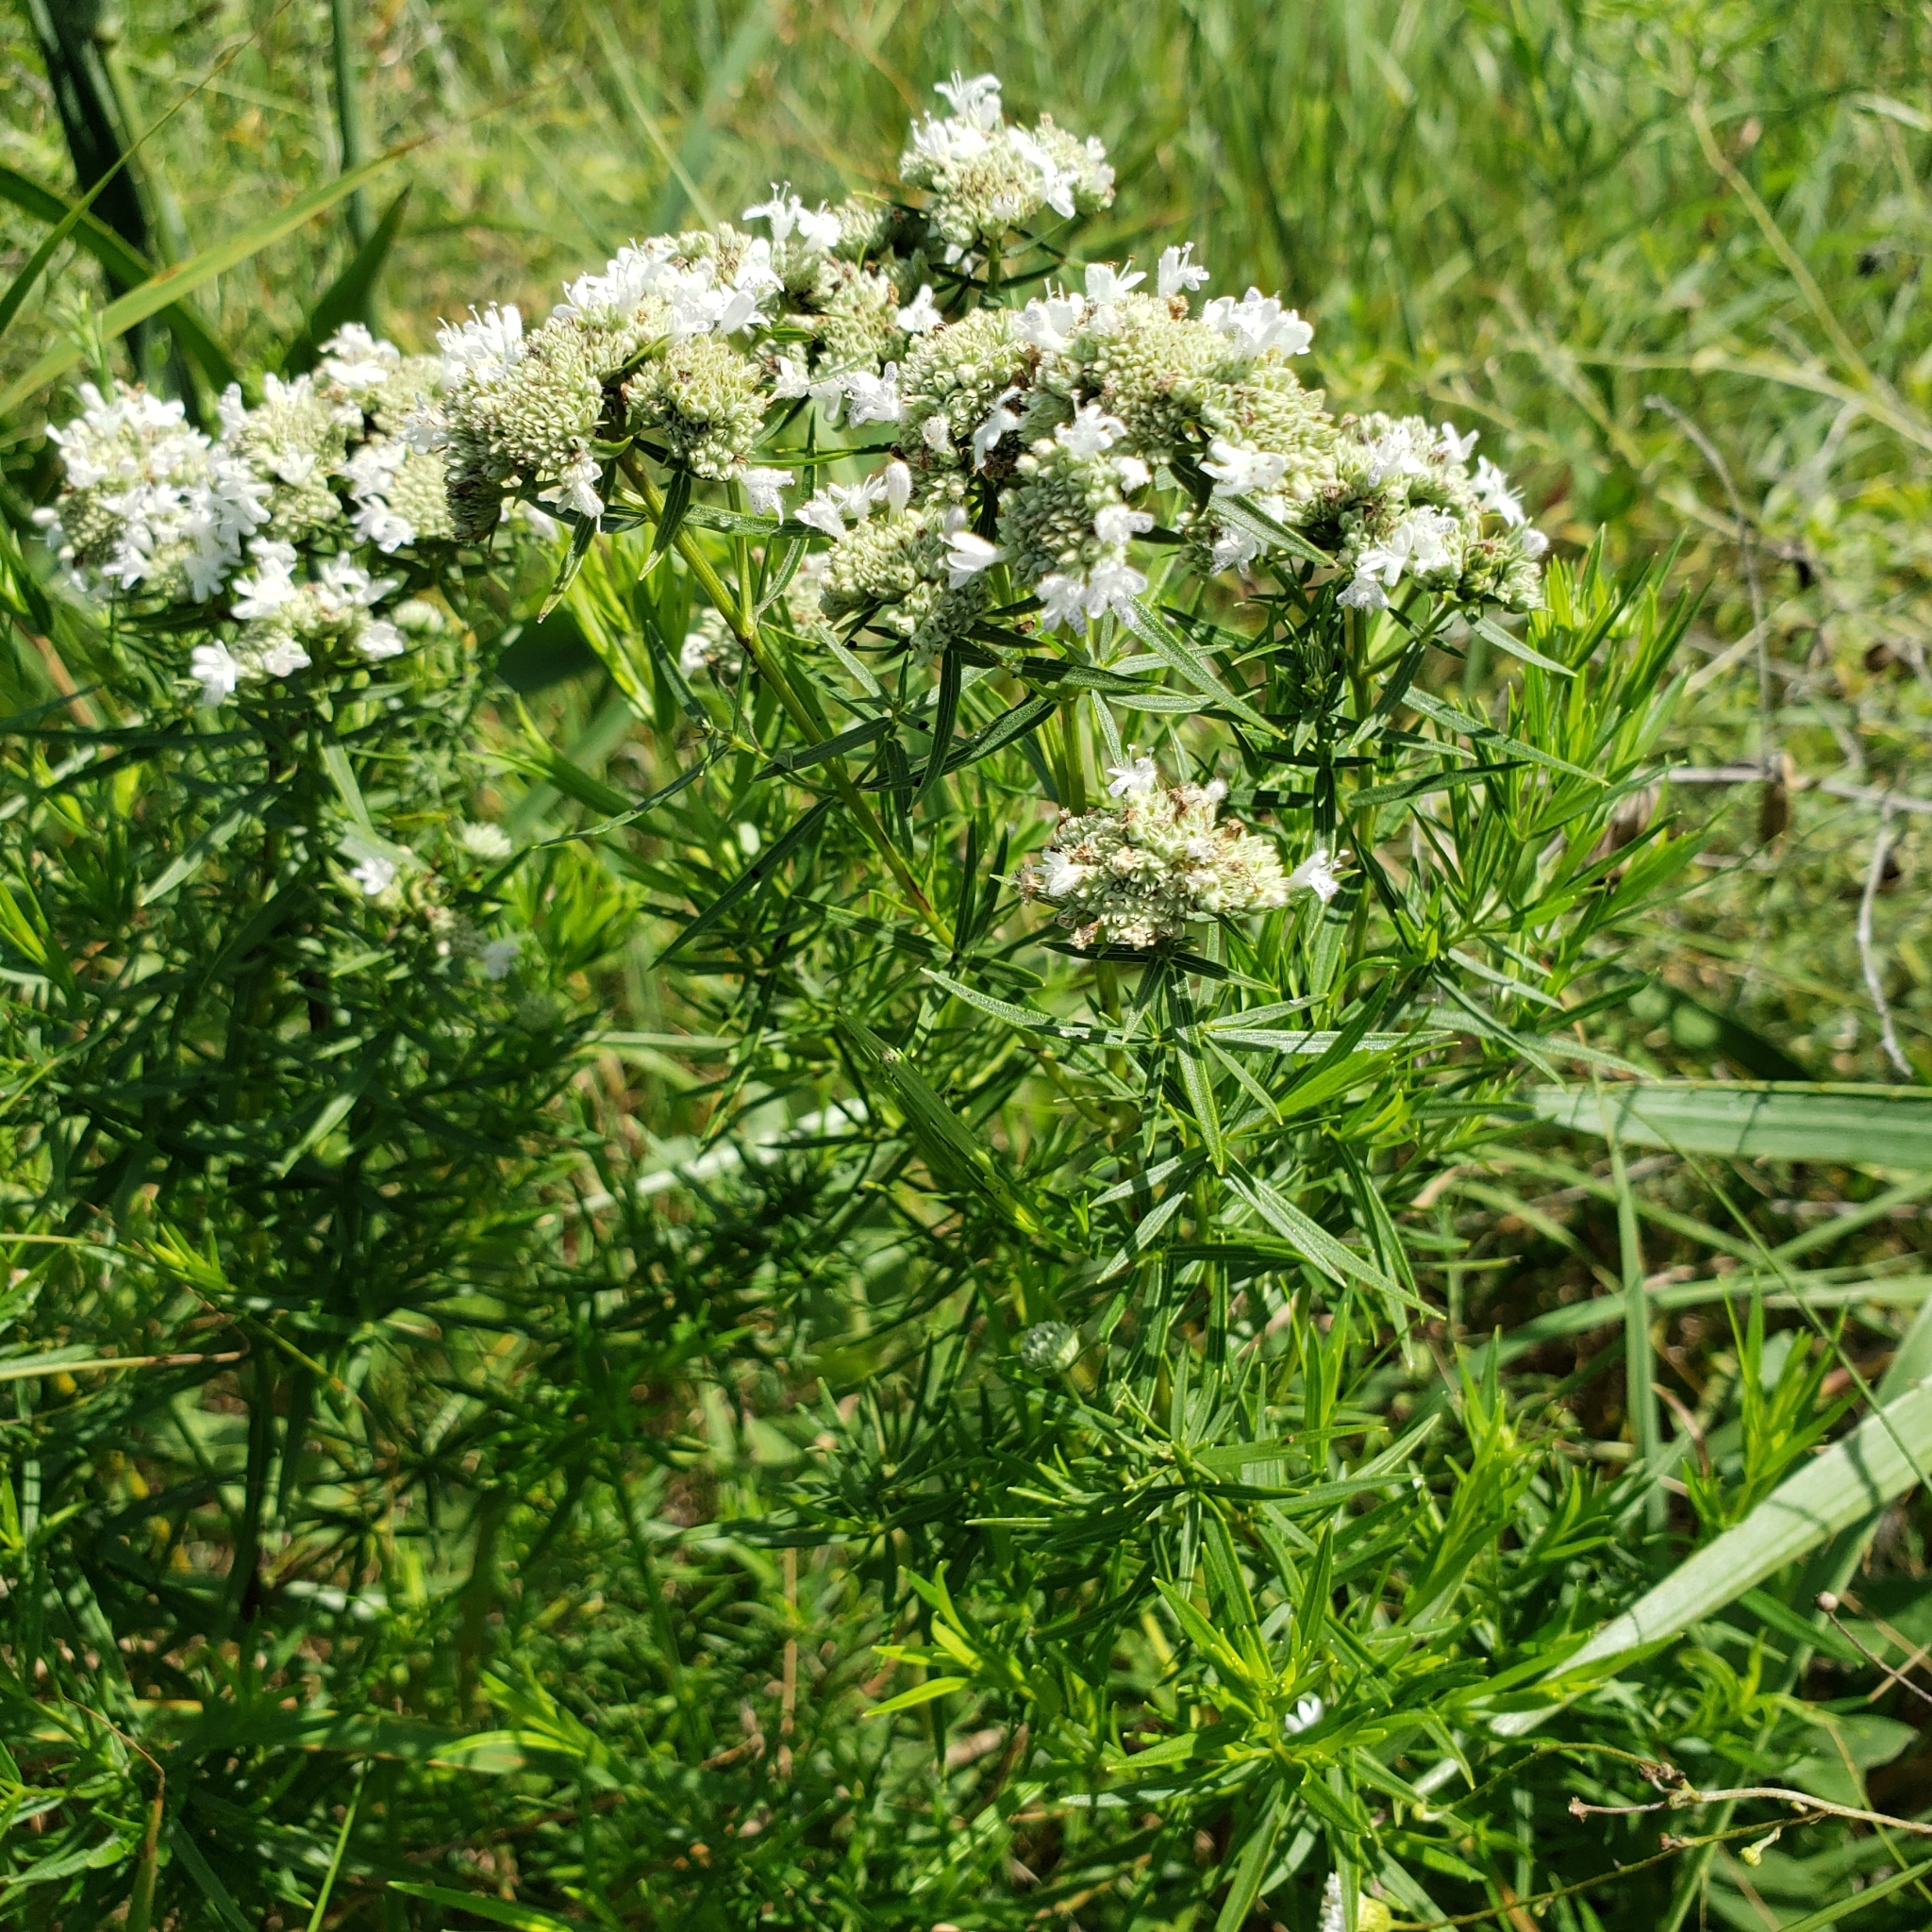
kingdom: Plantae
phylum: Tracheophyta
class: Magnoliopsida
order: Lamiales
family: Lamiaceae
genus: Pycnanthemum
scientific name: Pycnanthemum tenuifolium
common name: Narrow-leaf mountain-mint
